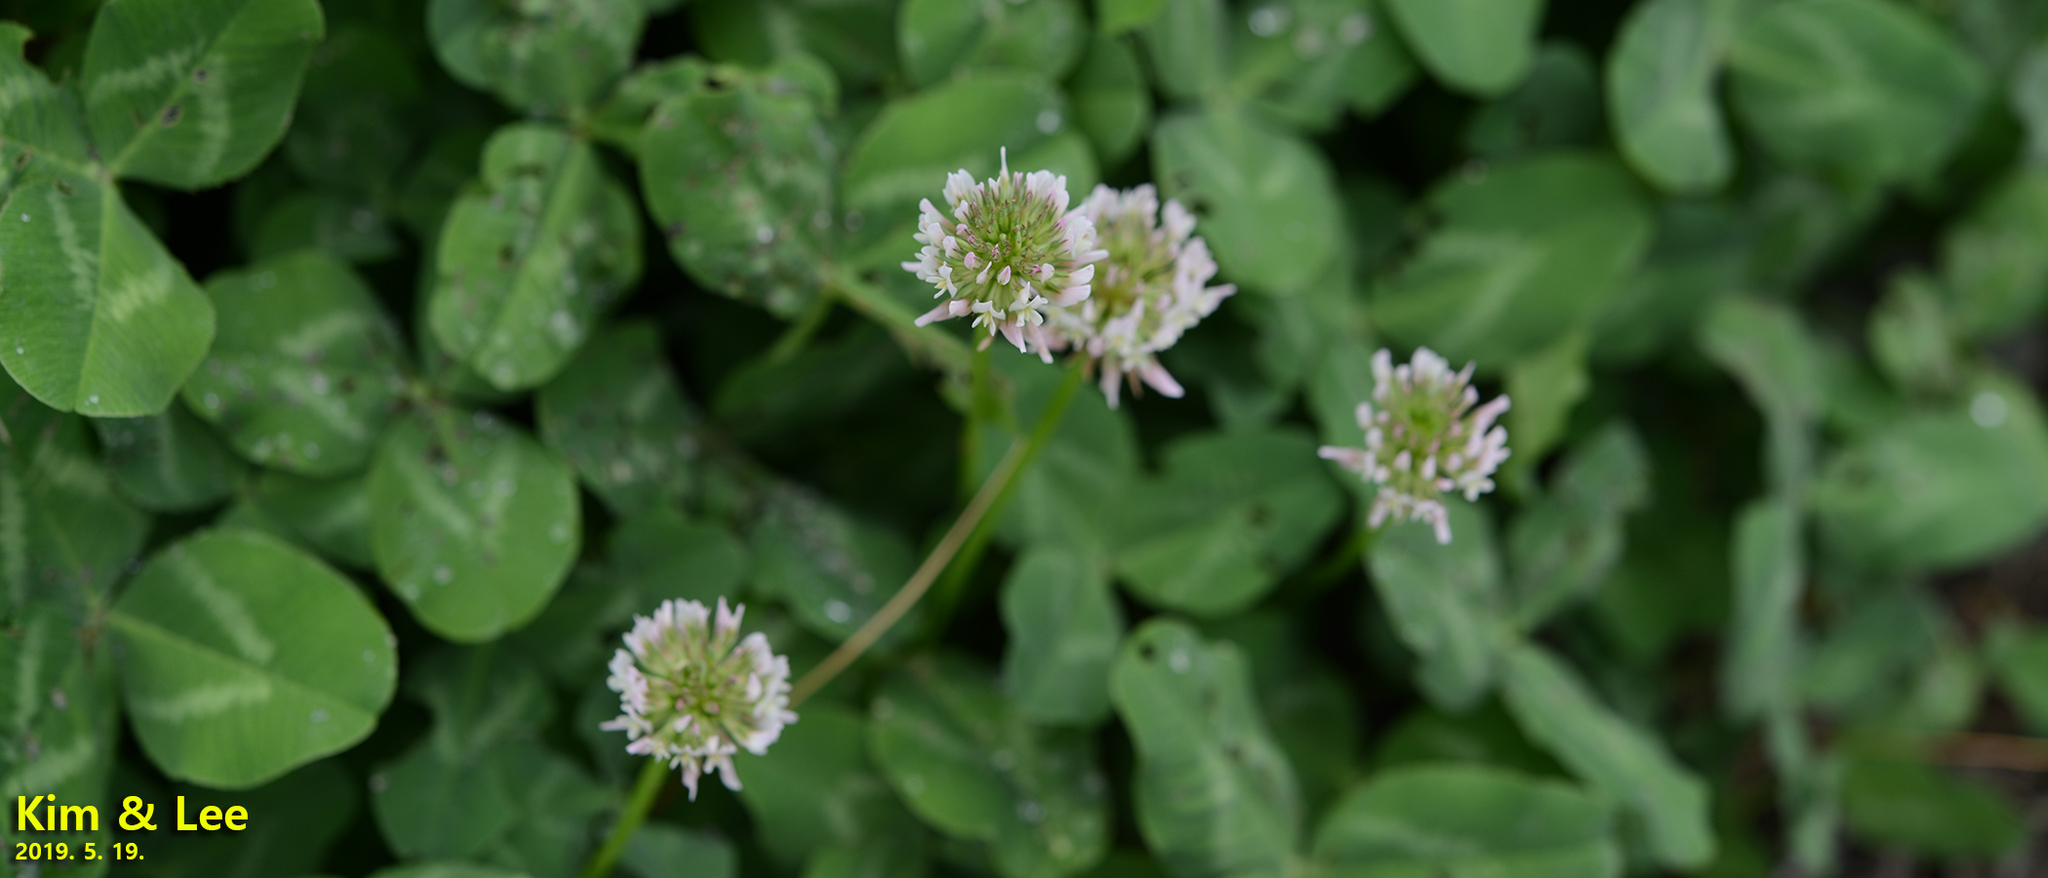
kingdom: Plantae
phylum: Tracheophyta
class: Magnoliopsida
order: Fabales
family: Fabaceae
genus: Trifolium
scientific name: Trifolium repens
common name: White clover
